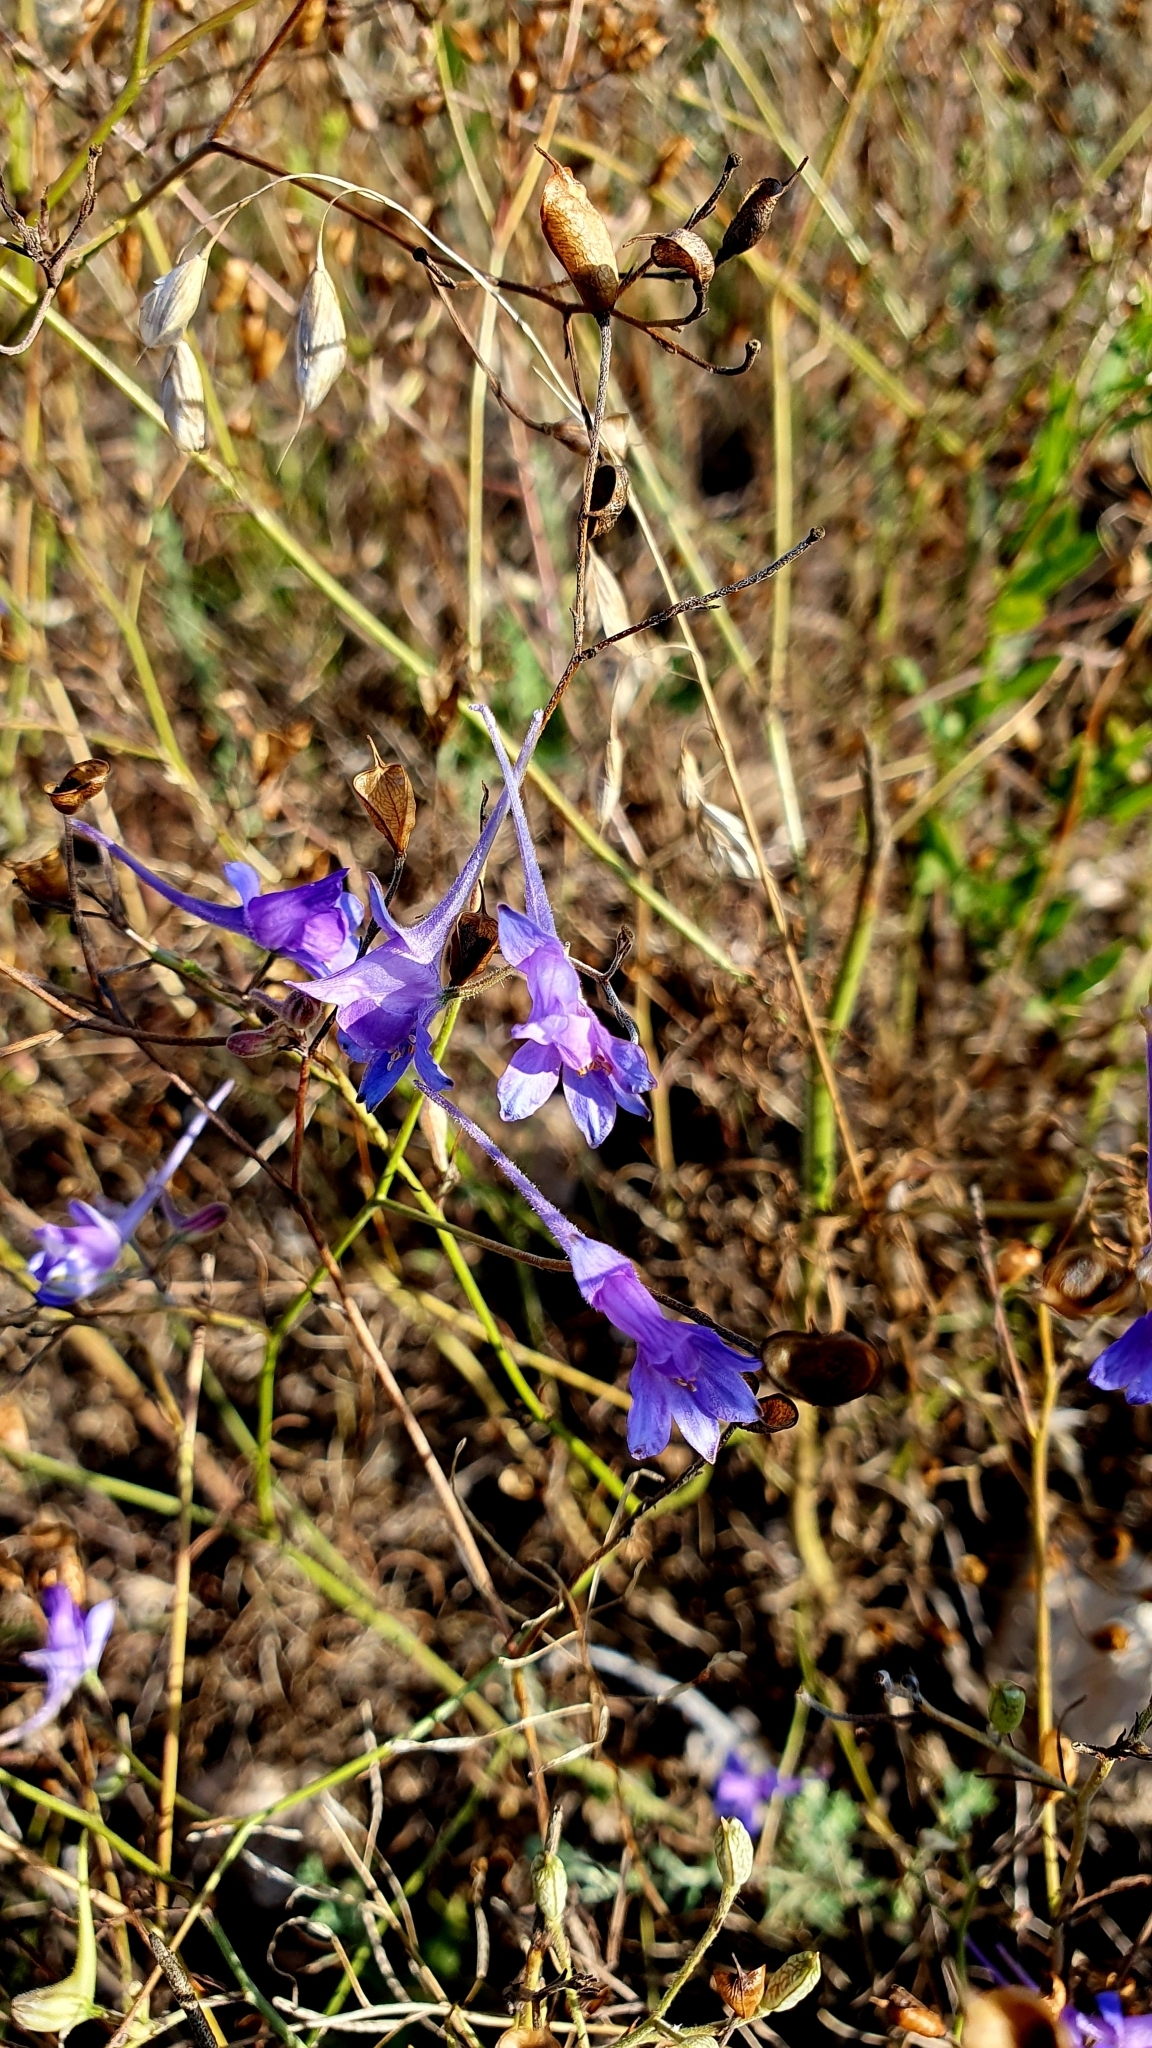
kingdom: Plantae
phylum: Tracheophyta
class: Magnoliopsida
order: Ranunculales
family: Ranunculaceae
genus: Delphinium
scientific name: Delphinium consolida
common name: Branching larkspur
